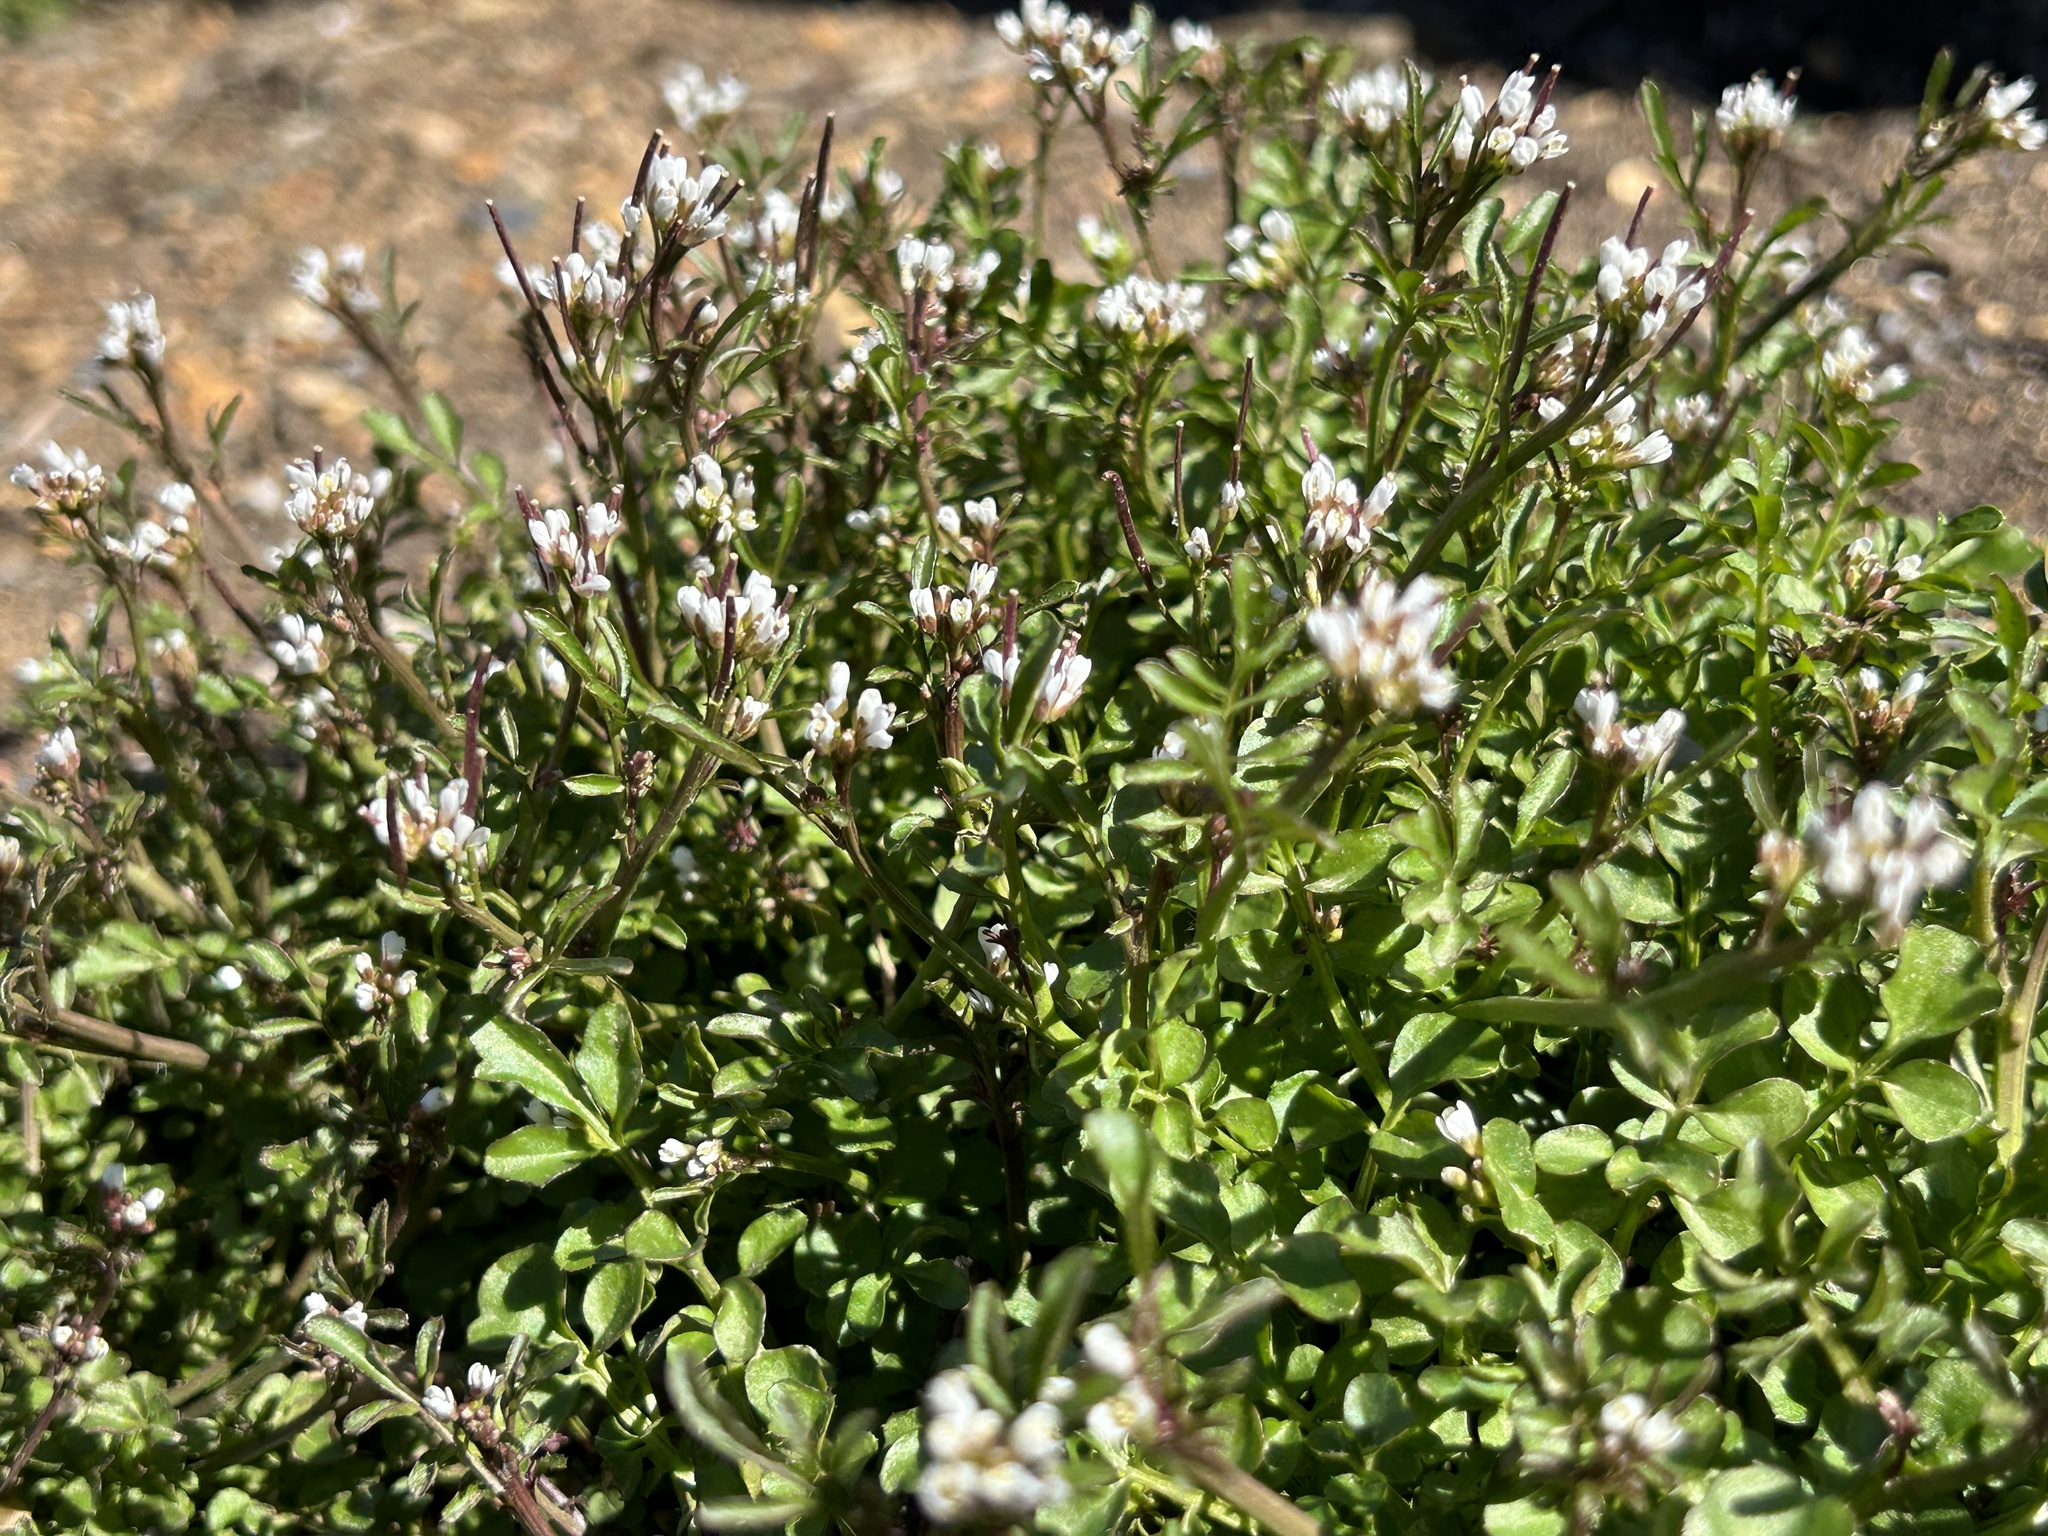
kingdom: Plantae
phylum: Tracheophyta
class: Magnoliopsida
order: Brassicales
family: Brassicaceae
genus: Cardamine
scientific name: Cardamine hirsuta
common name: Hairy bittercress
